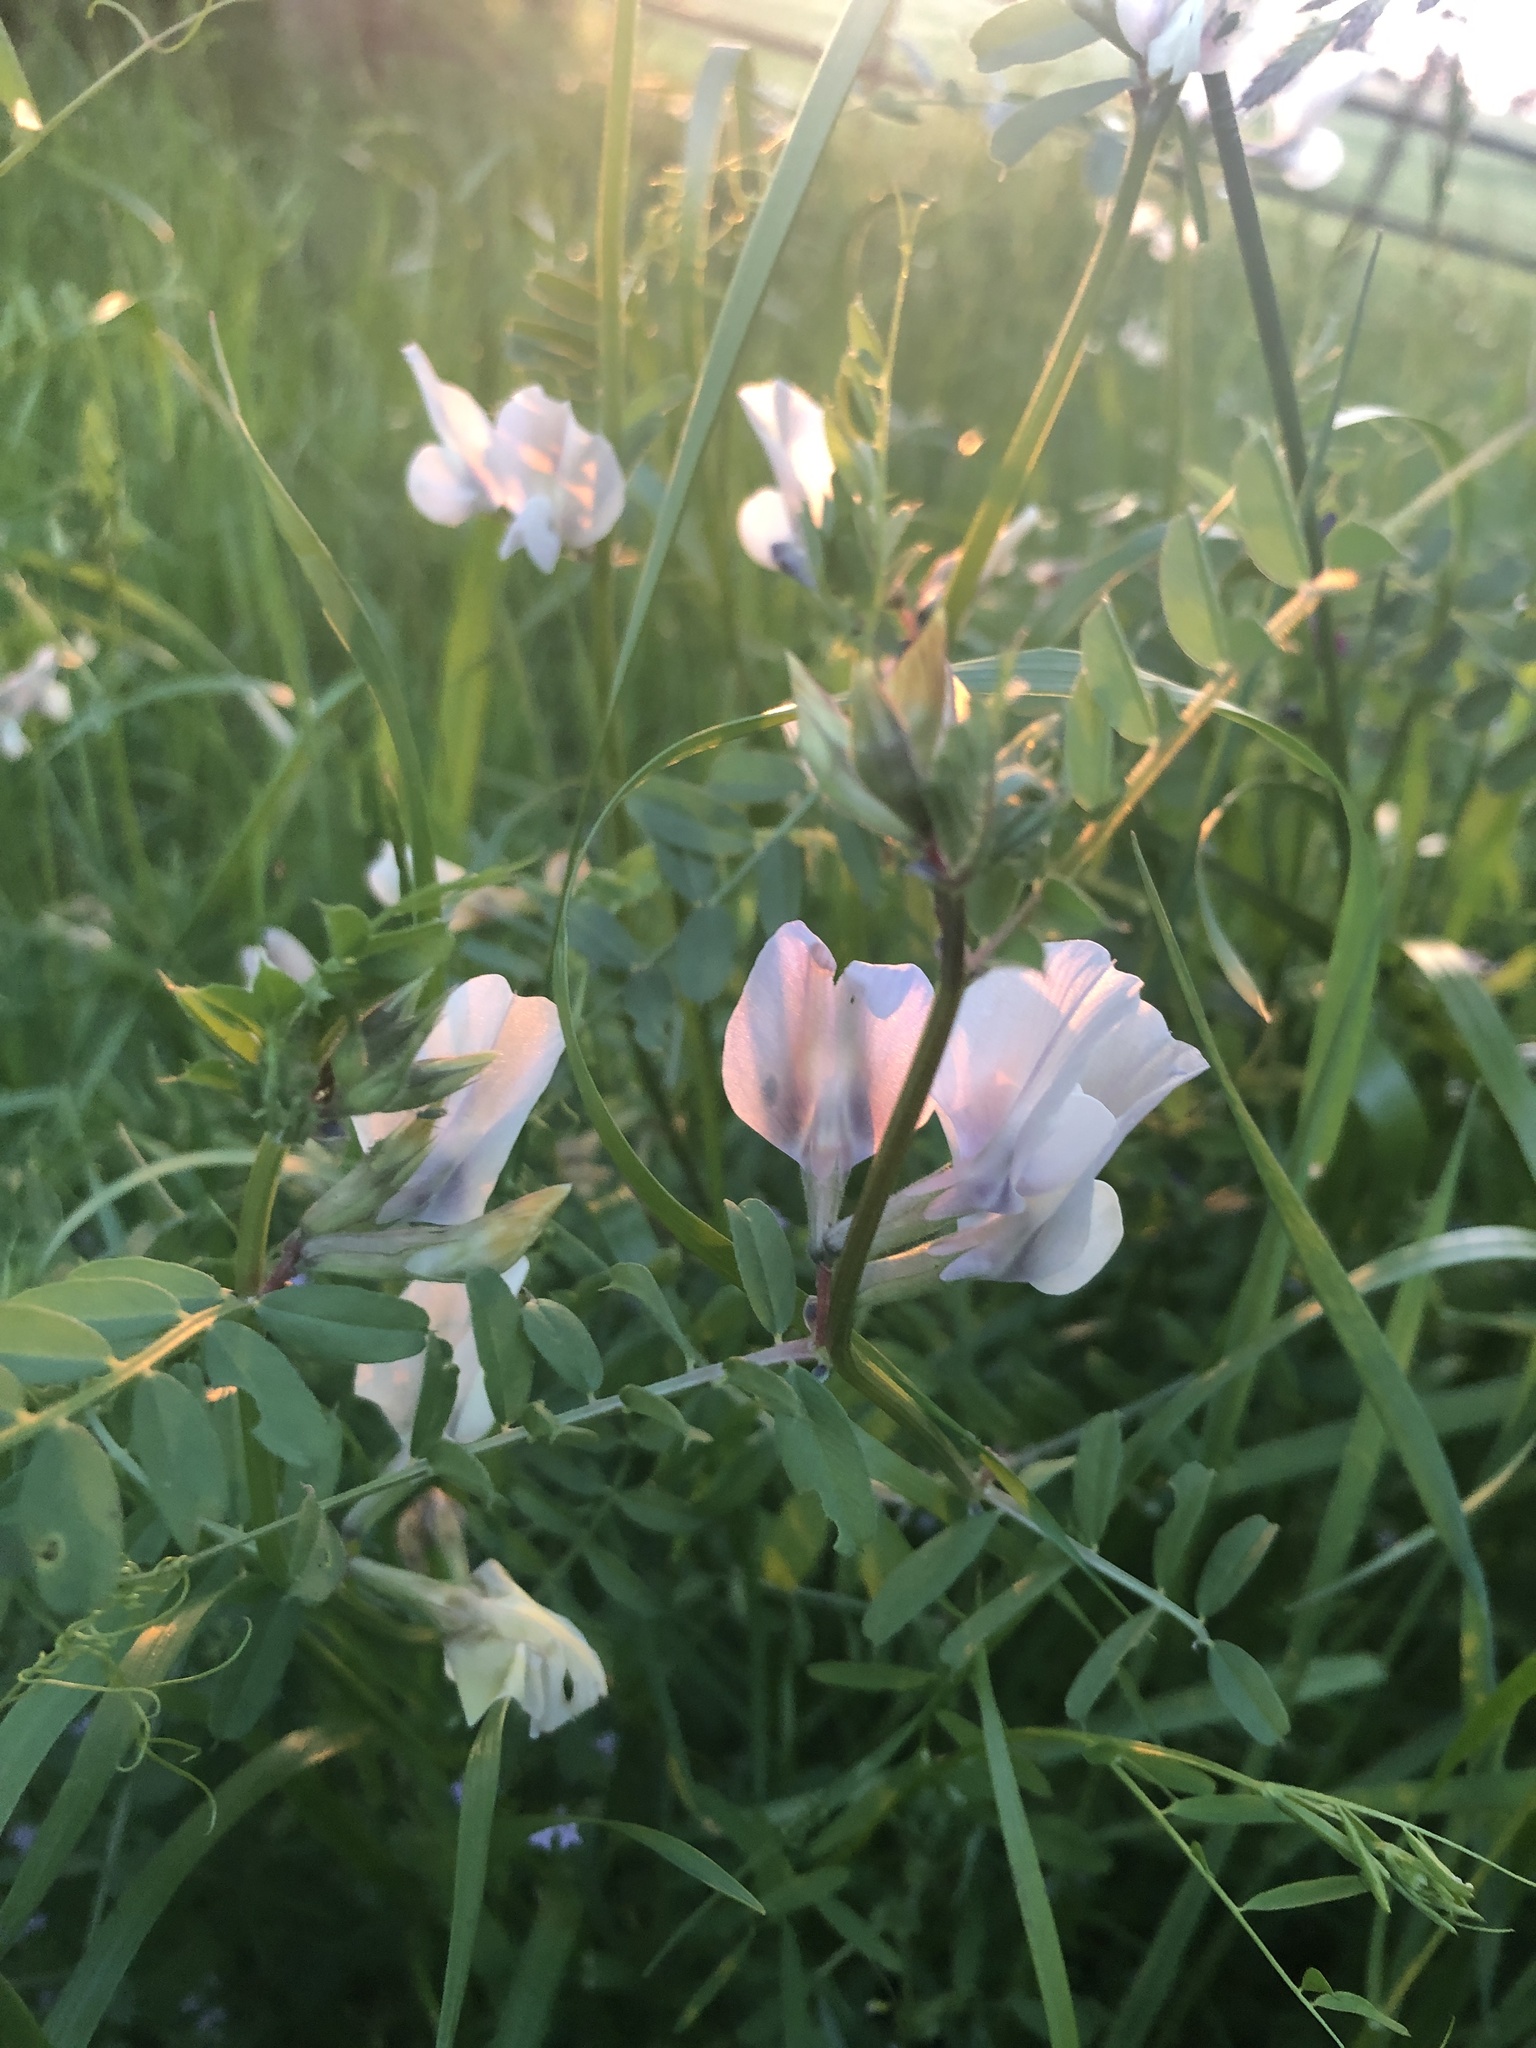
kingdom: Plantae
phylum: Tracheophyta
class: Magnoliopsida
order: Fabales
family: Fabaceae
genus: Vicia
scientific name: Vicia grandiflora
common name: Large yellow vetch
